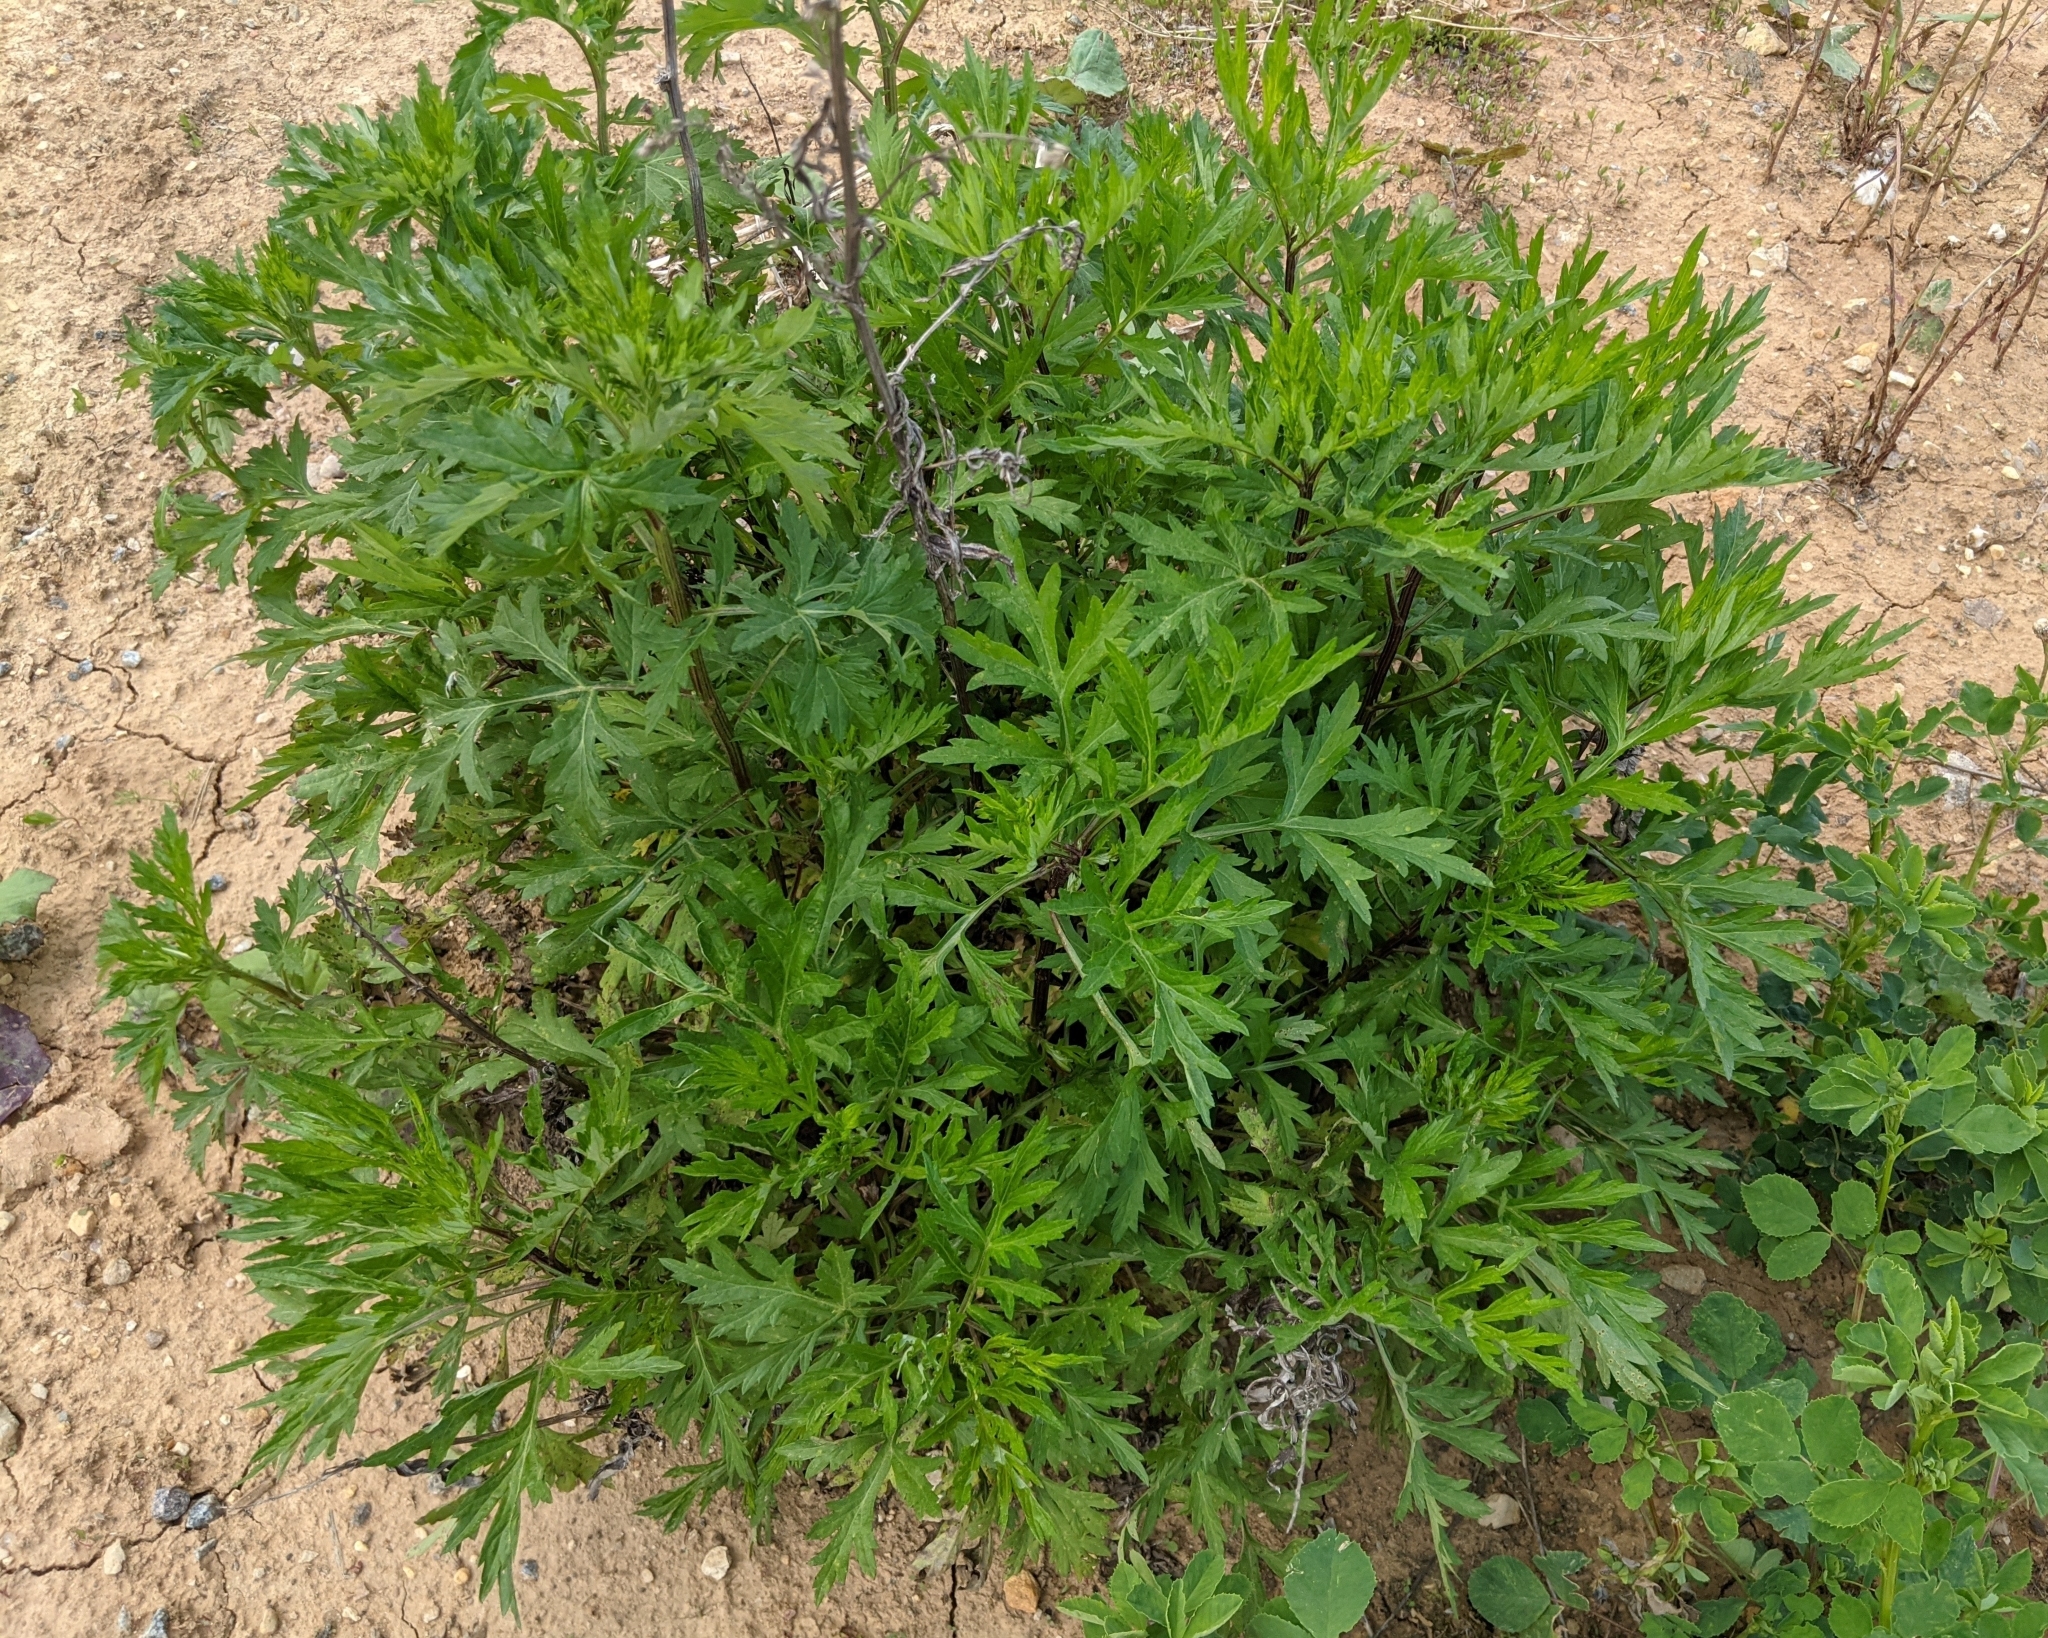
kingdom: Plantae
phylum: Tracheophyta
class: Magnoliopsida
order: Asterales
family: Asteraceae
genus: Artemisia
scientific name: Artemisia vulgaris
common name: Mugwort
